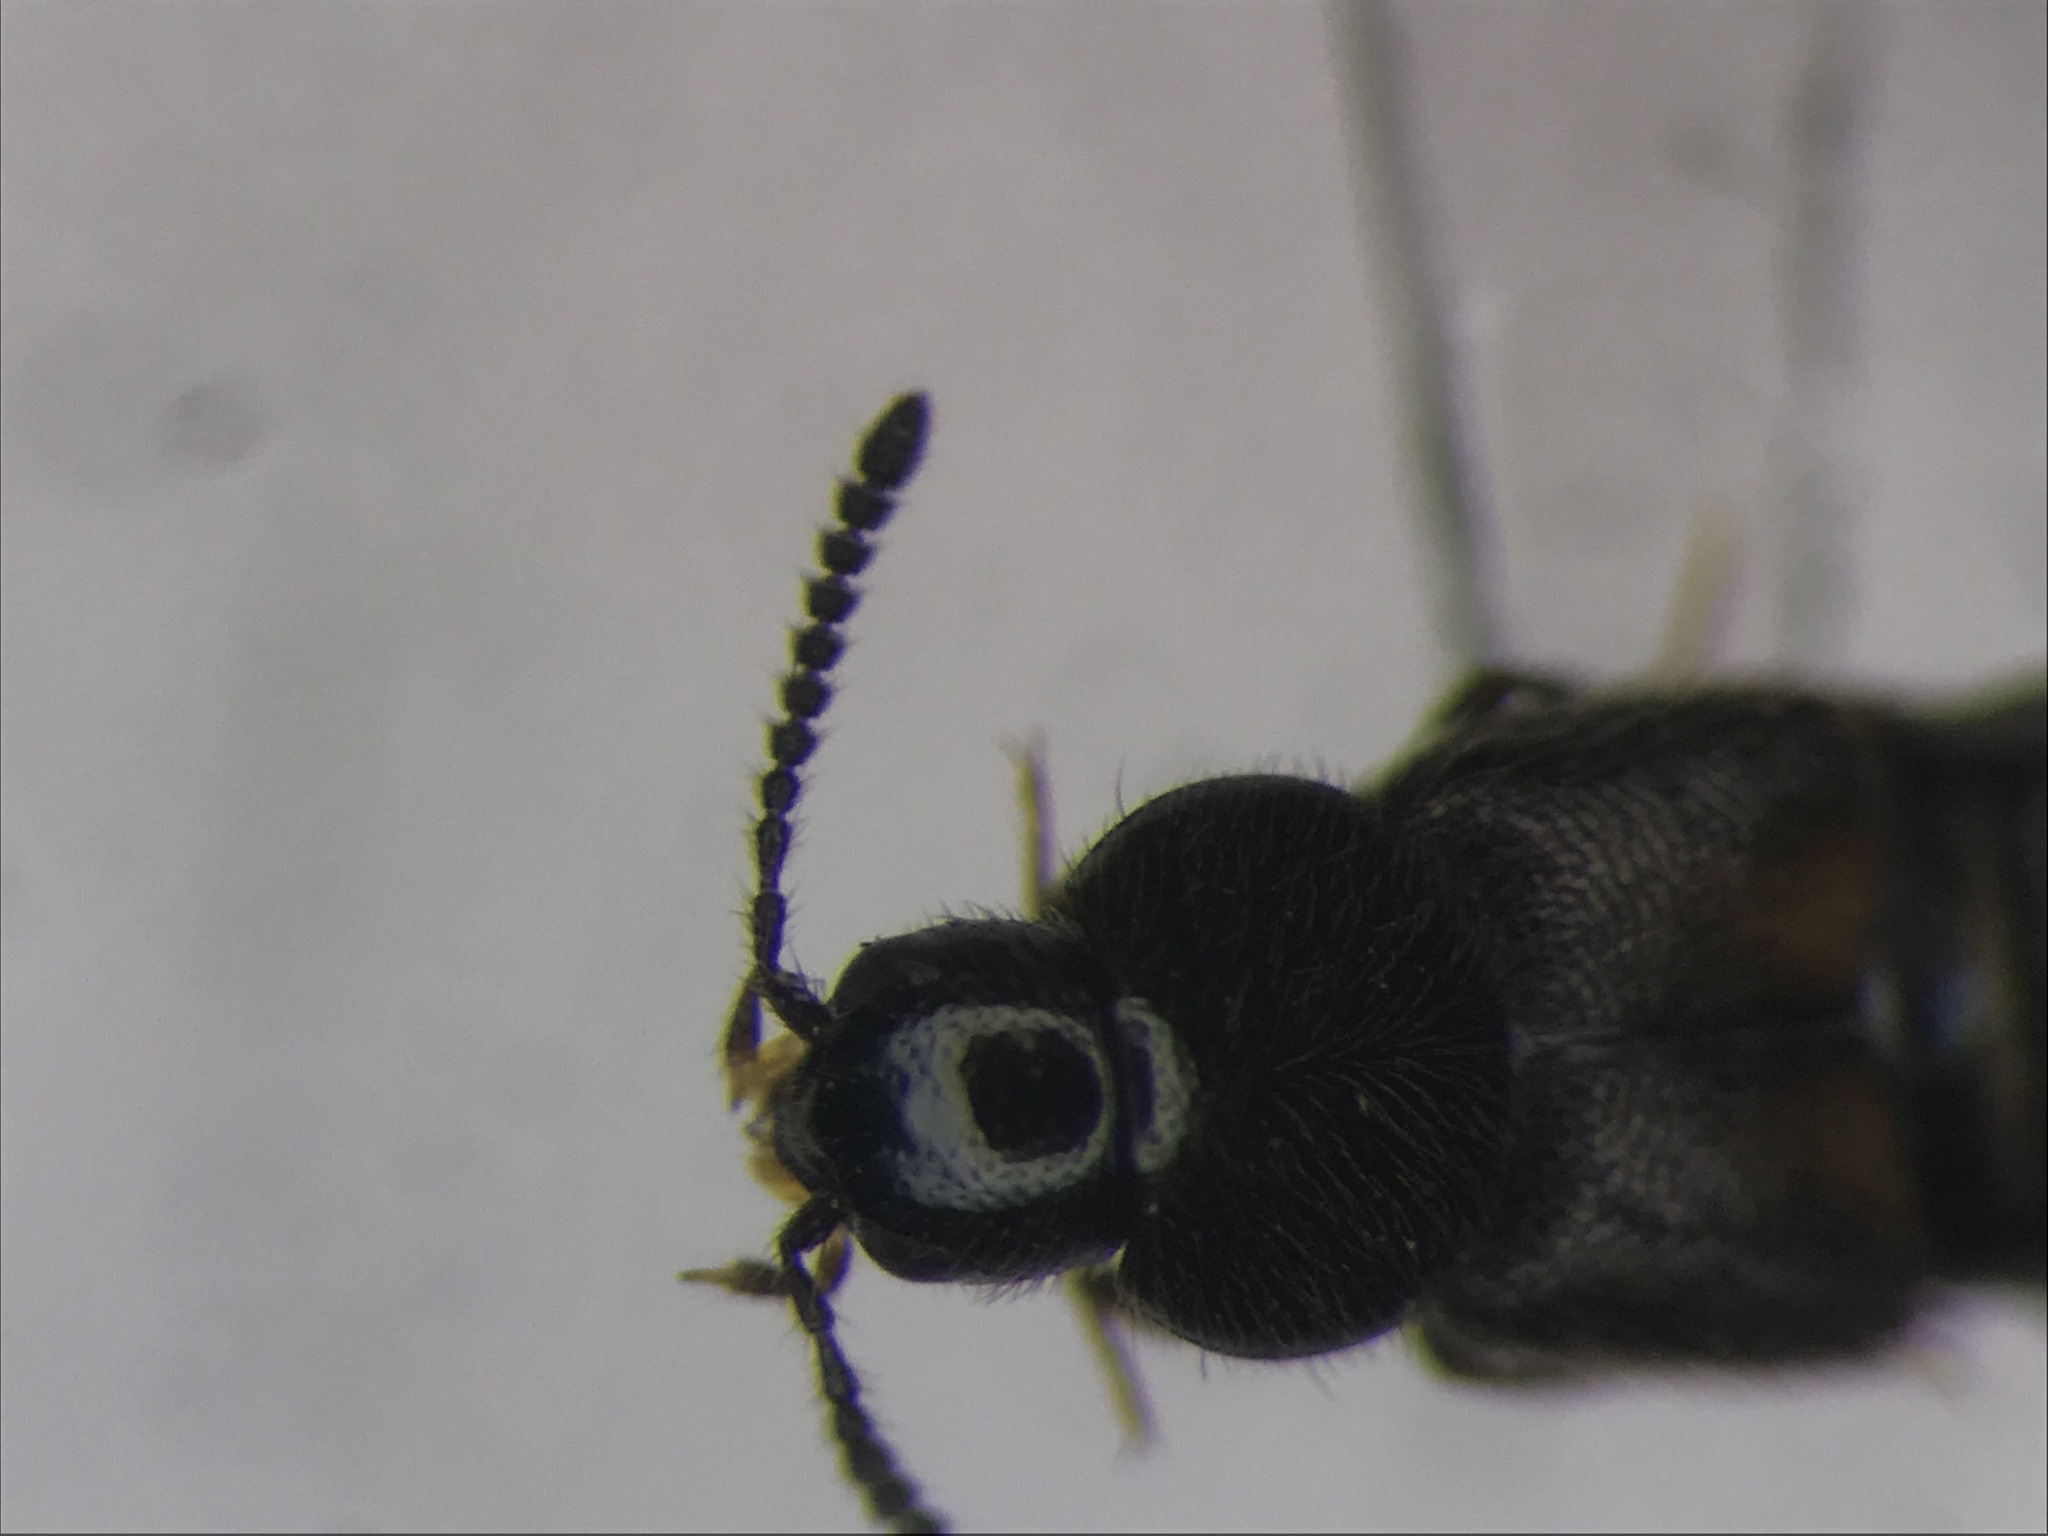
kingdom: Animalia
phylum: Arthropoda
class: Insecta
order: Coleoptera
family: Staphylinidae
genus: Aleochara
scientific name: Aleochara lacertina
